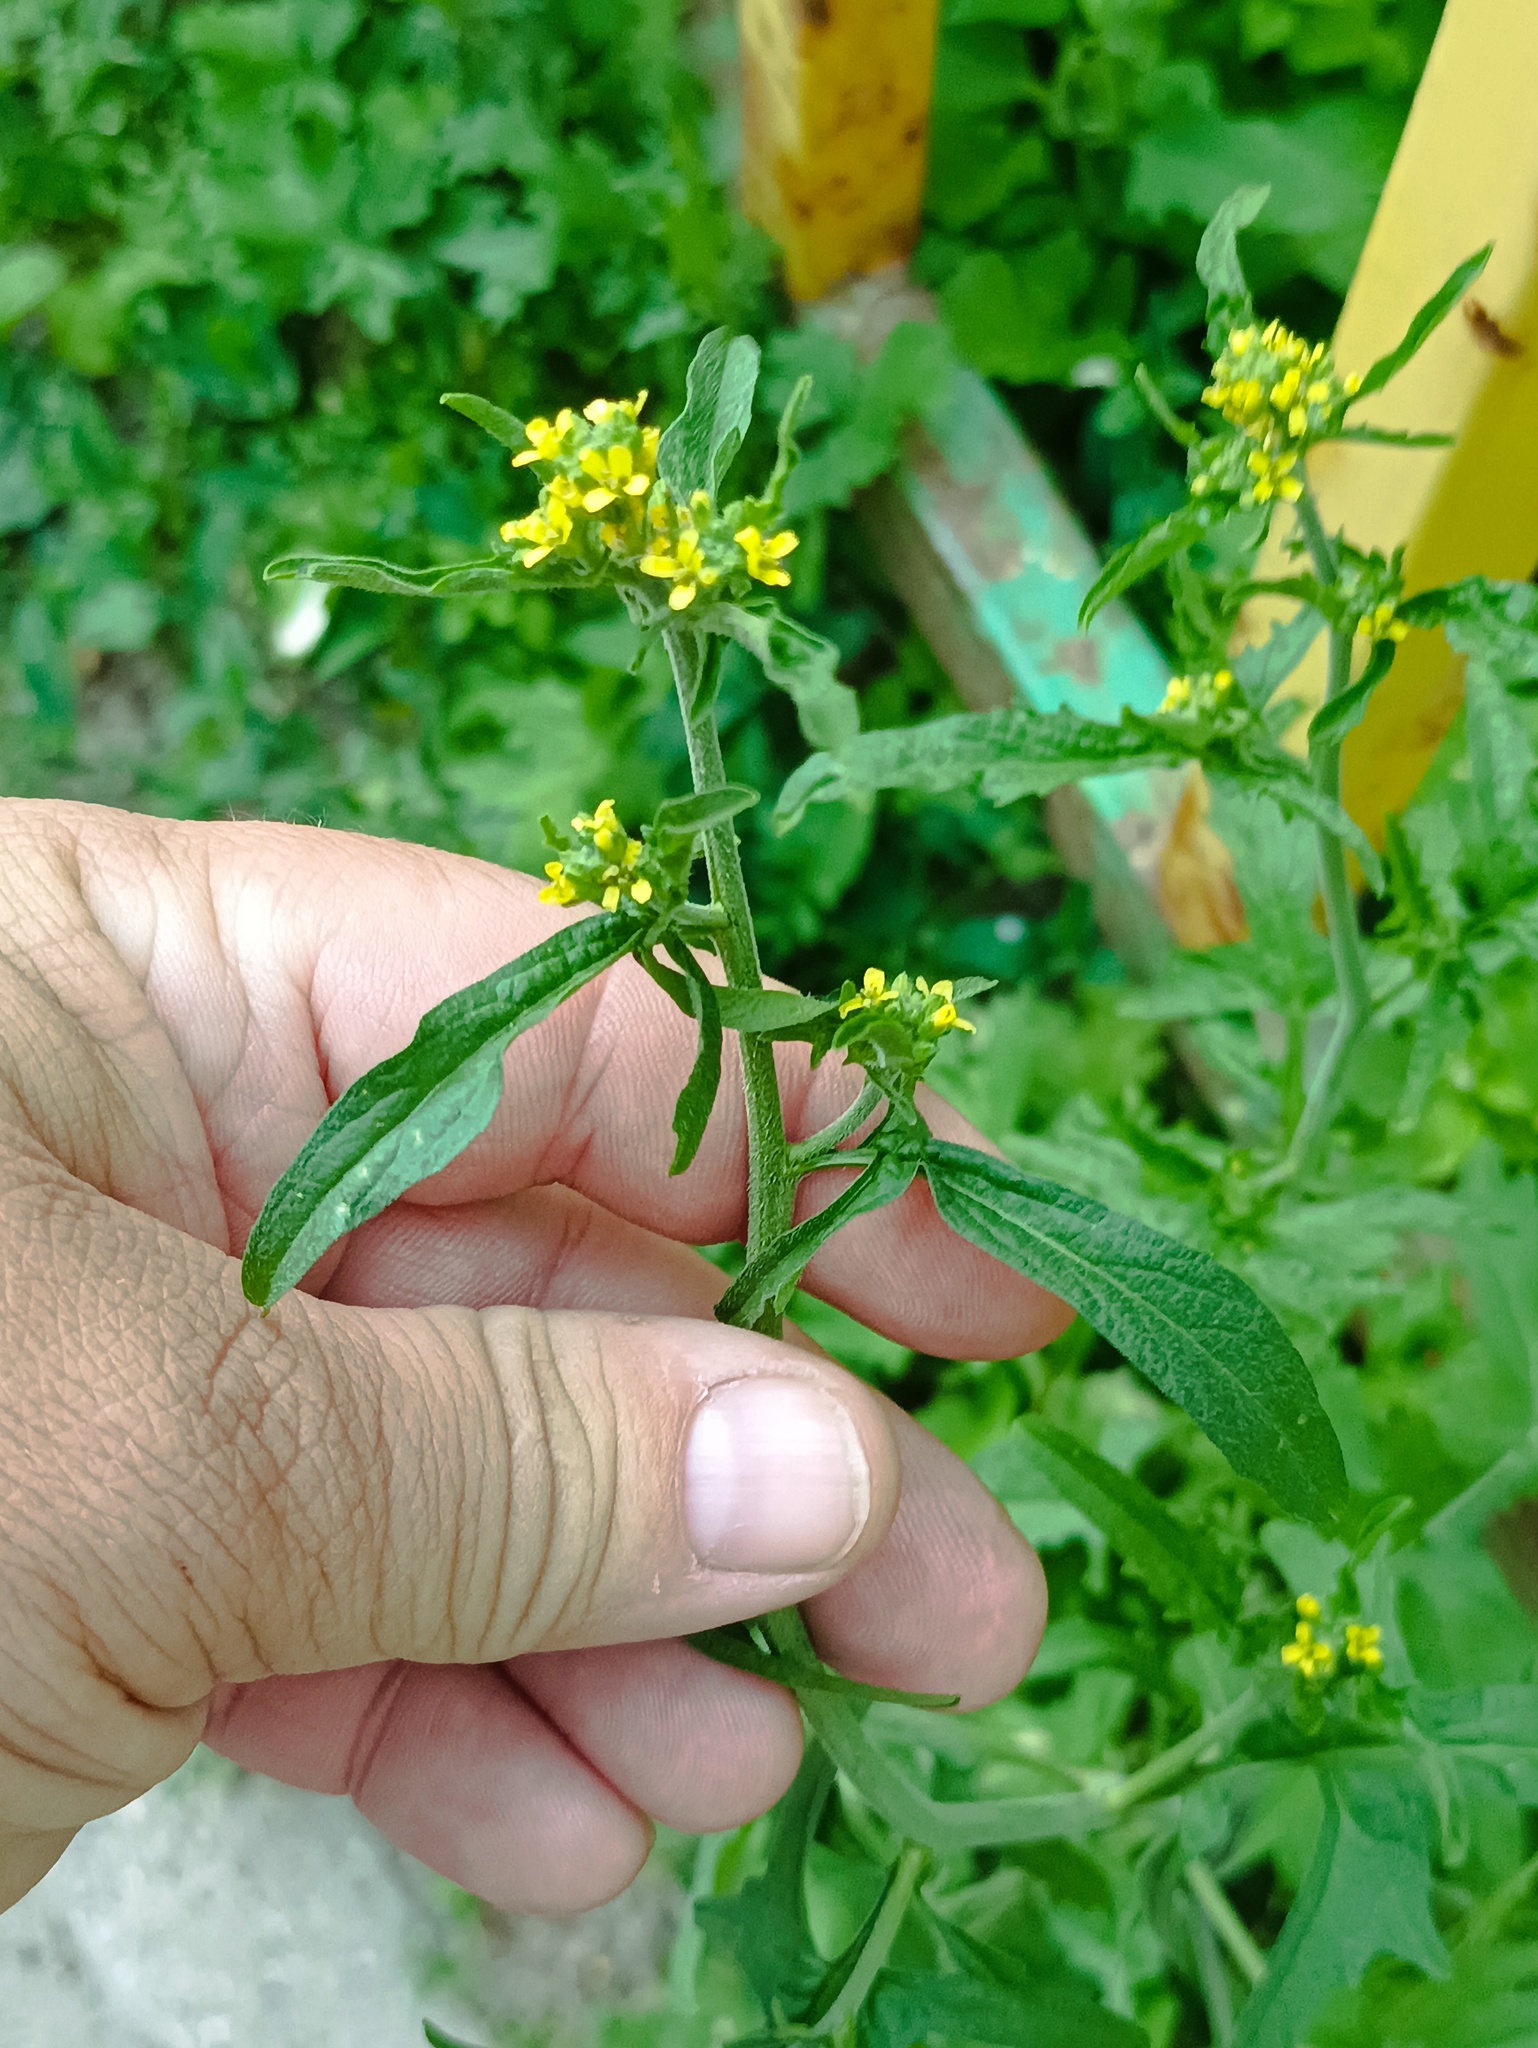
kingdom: Plantae
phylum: Tracheophyta
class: Magnoliopsida
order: Brassicales
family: Brassicaceae
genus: Sisymbrium
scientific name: Sisymbrium officinale
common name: Hedge mustard
